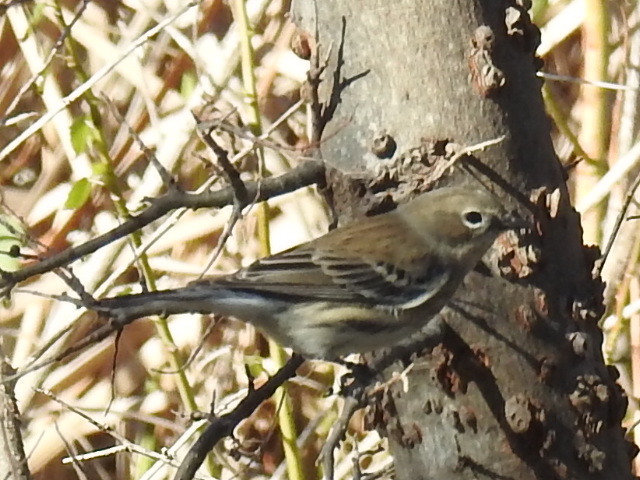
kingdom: Animalia
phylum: Chordata
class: Aves
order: Passeriformes
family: Parulidae
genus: Setophaga
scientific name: Setophaga coronata
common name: Myrtle warbler
